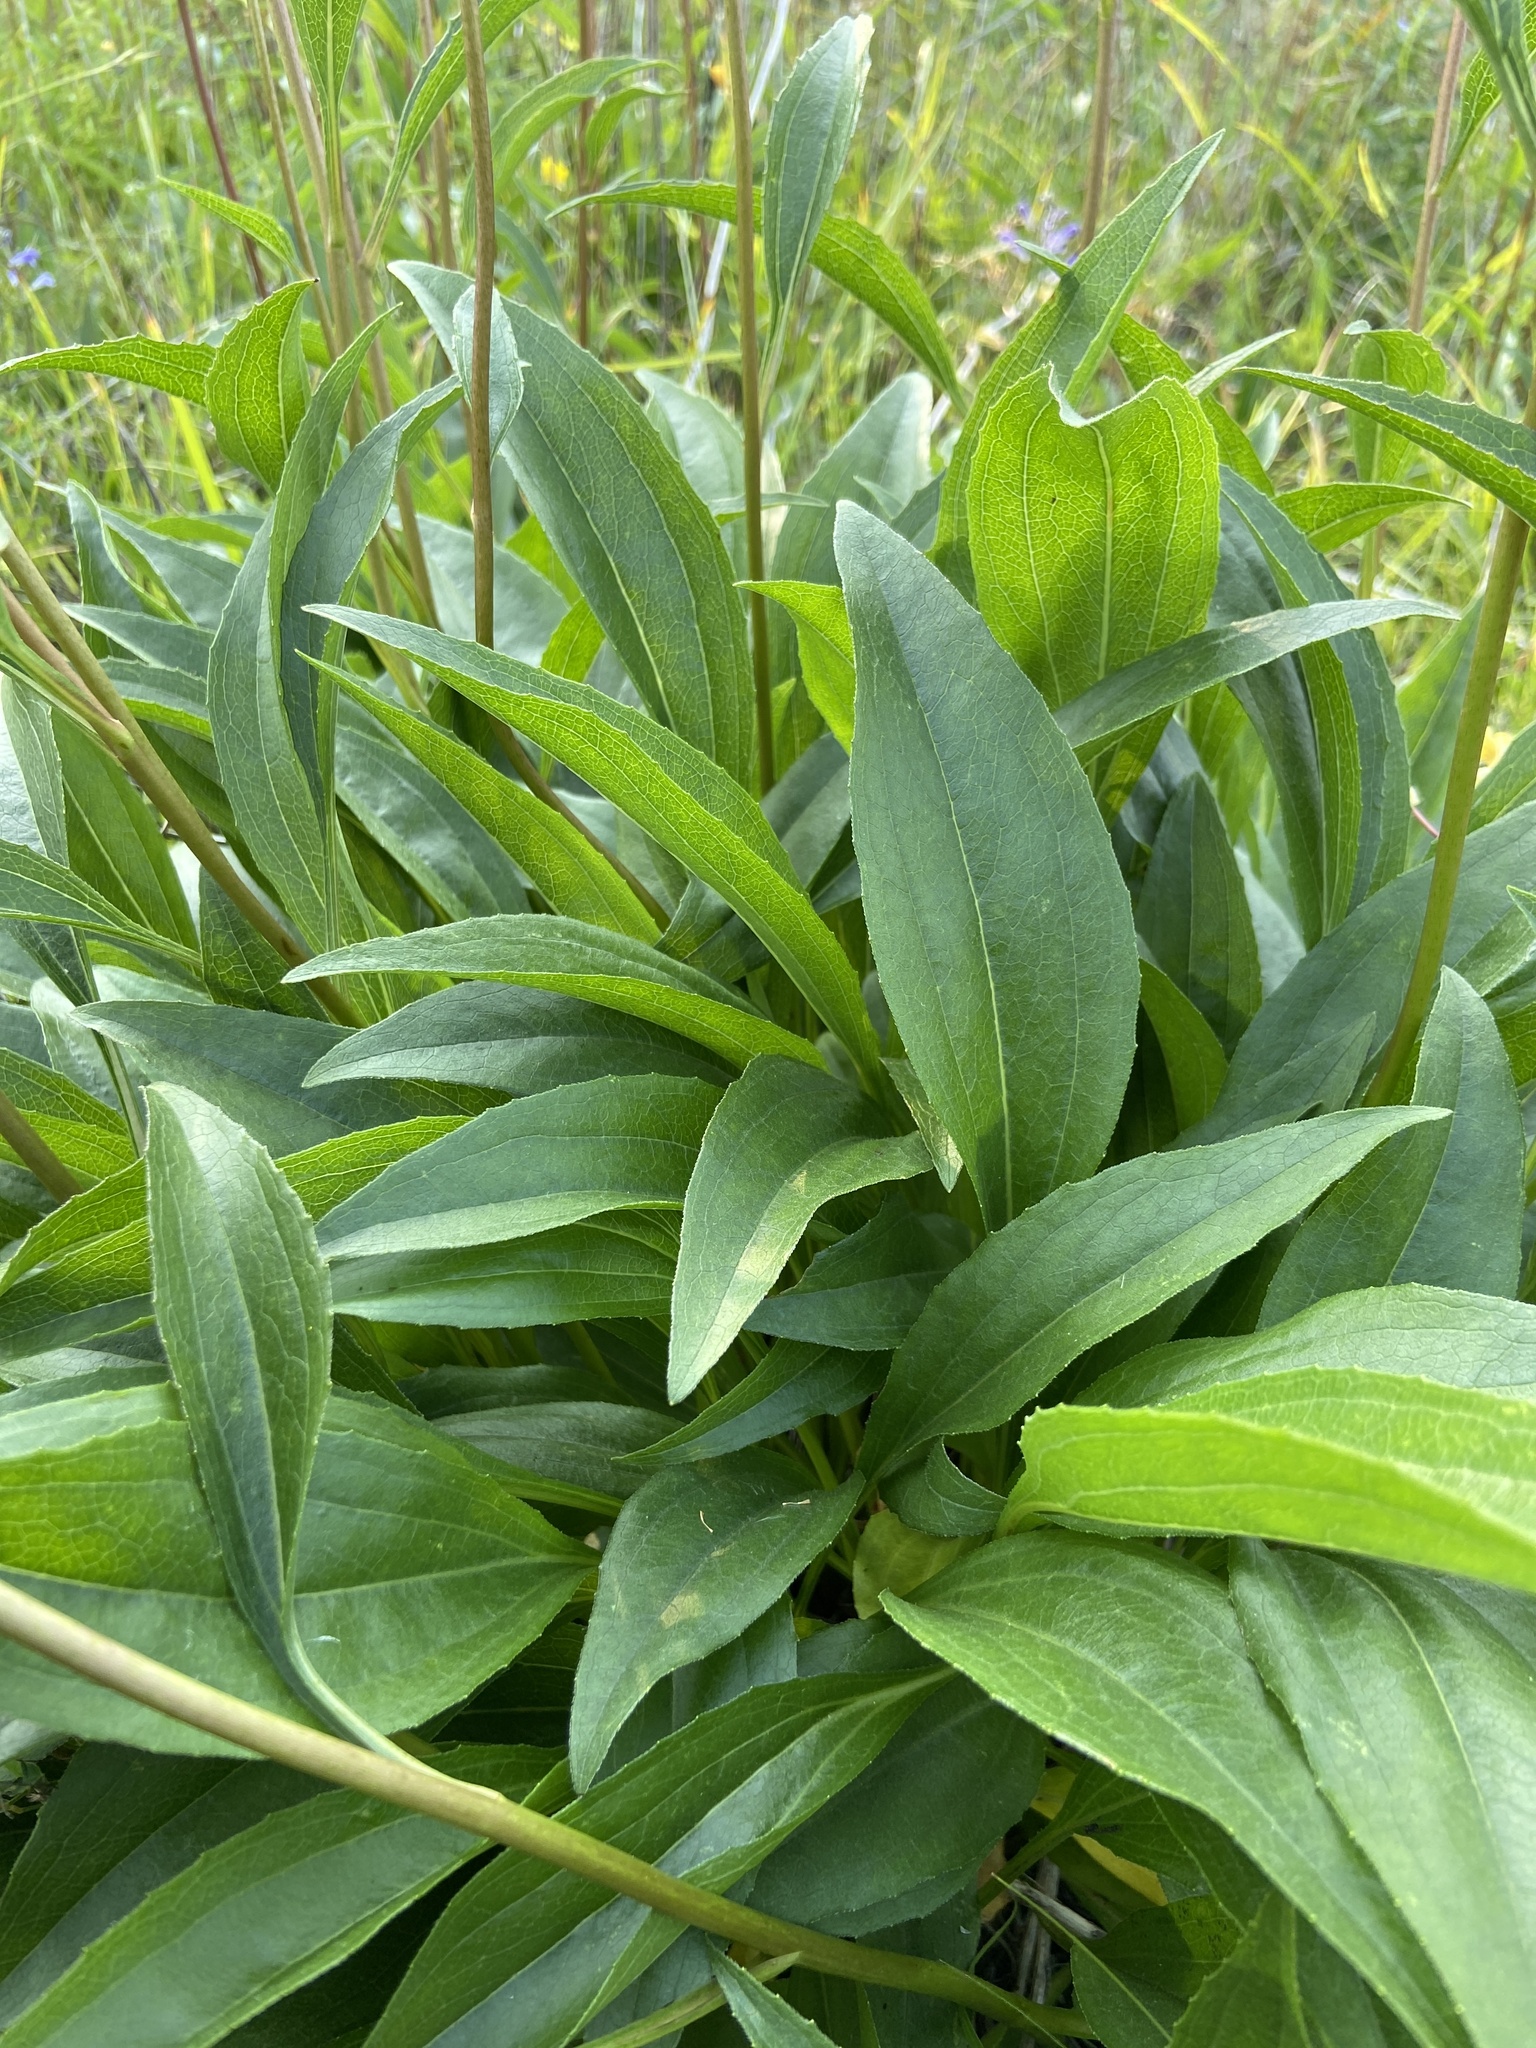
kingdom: Plantae
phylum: Tracheophyta
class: Magnoliopsida
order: Asterales
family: Asteraceae
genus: Echinacea
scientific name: Echinacea laevigata
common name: Smooth coneflower
